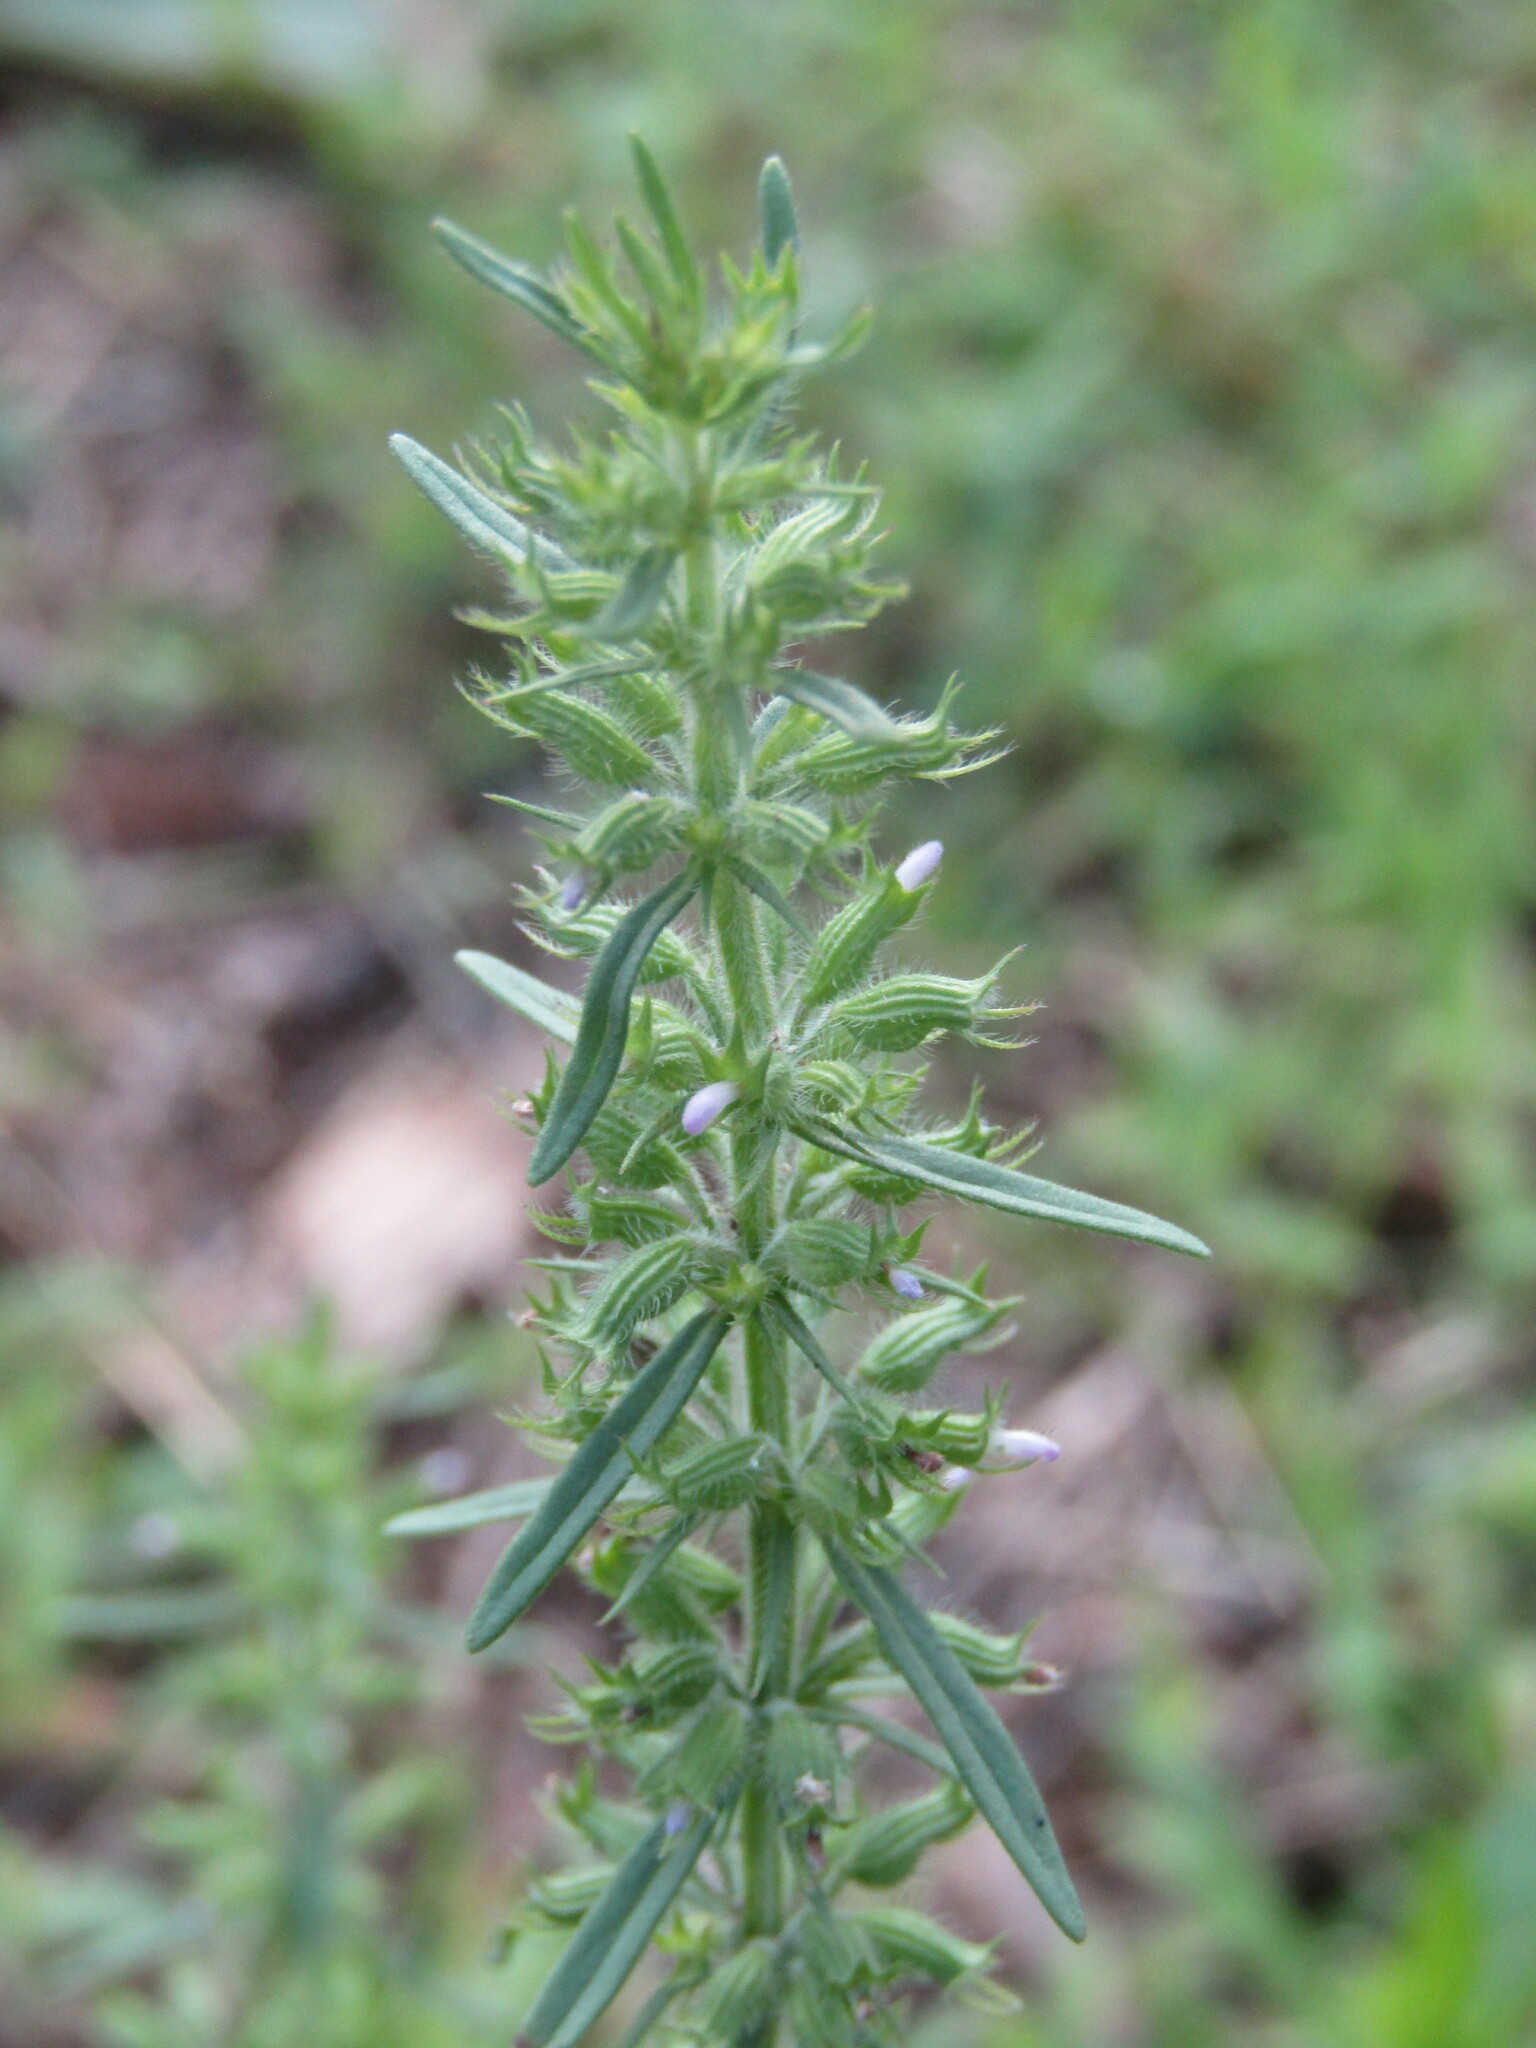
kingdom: Plantae
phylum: Tracheophyta
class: Magnoliopsida
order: Lamiales
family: Lamiaceae
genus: Hedeoma
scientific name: Hedeoma hispida
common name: Mock pennyroyal
